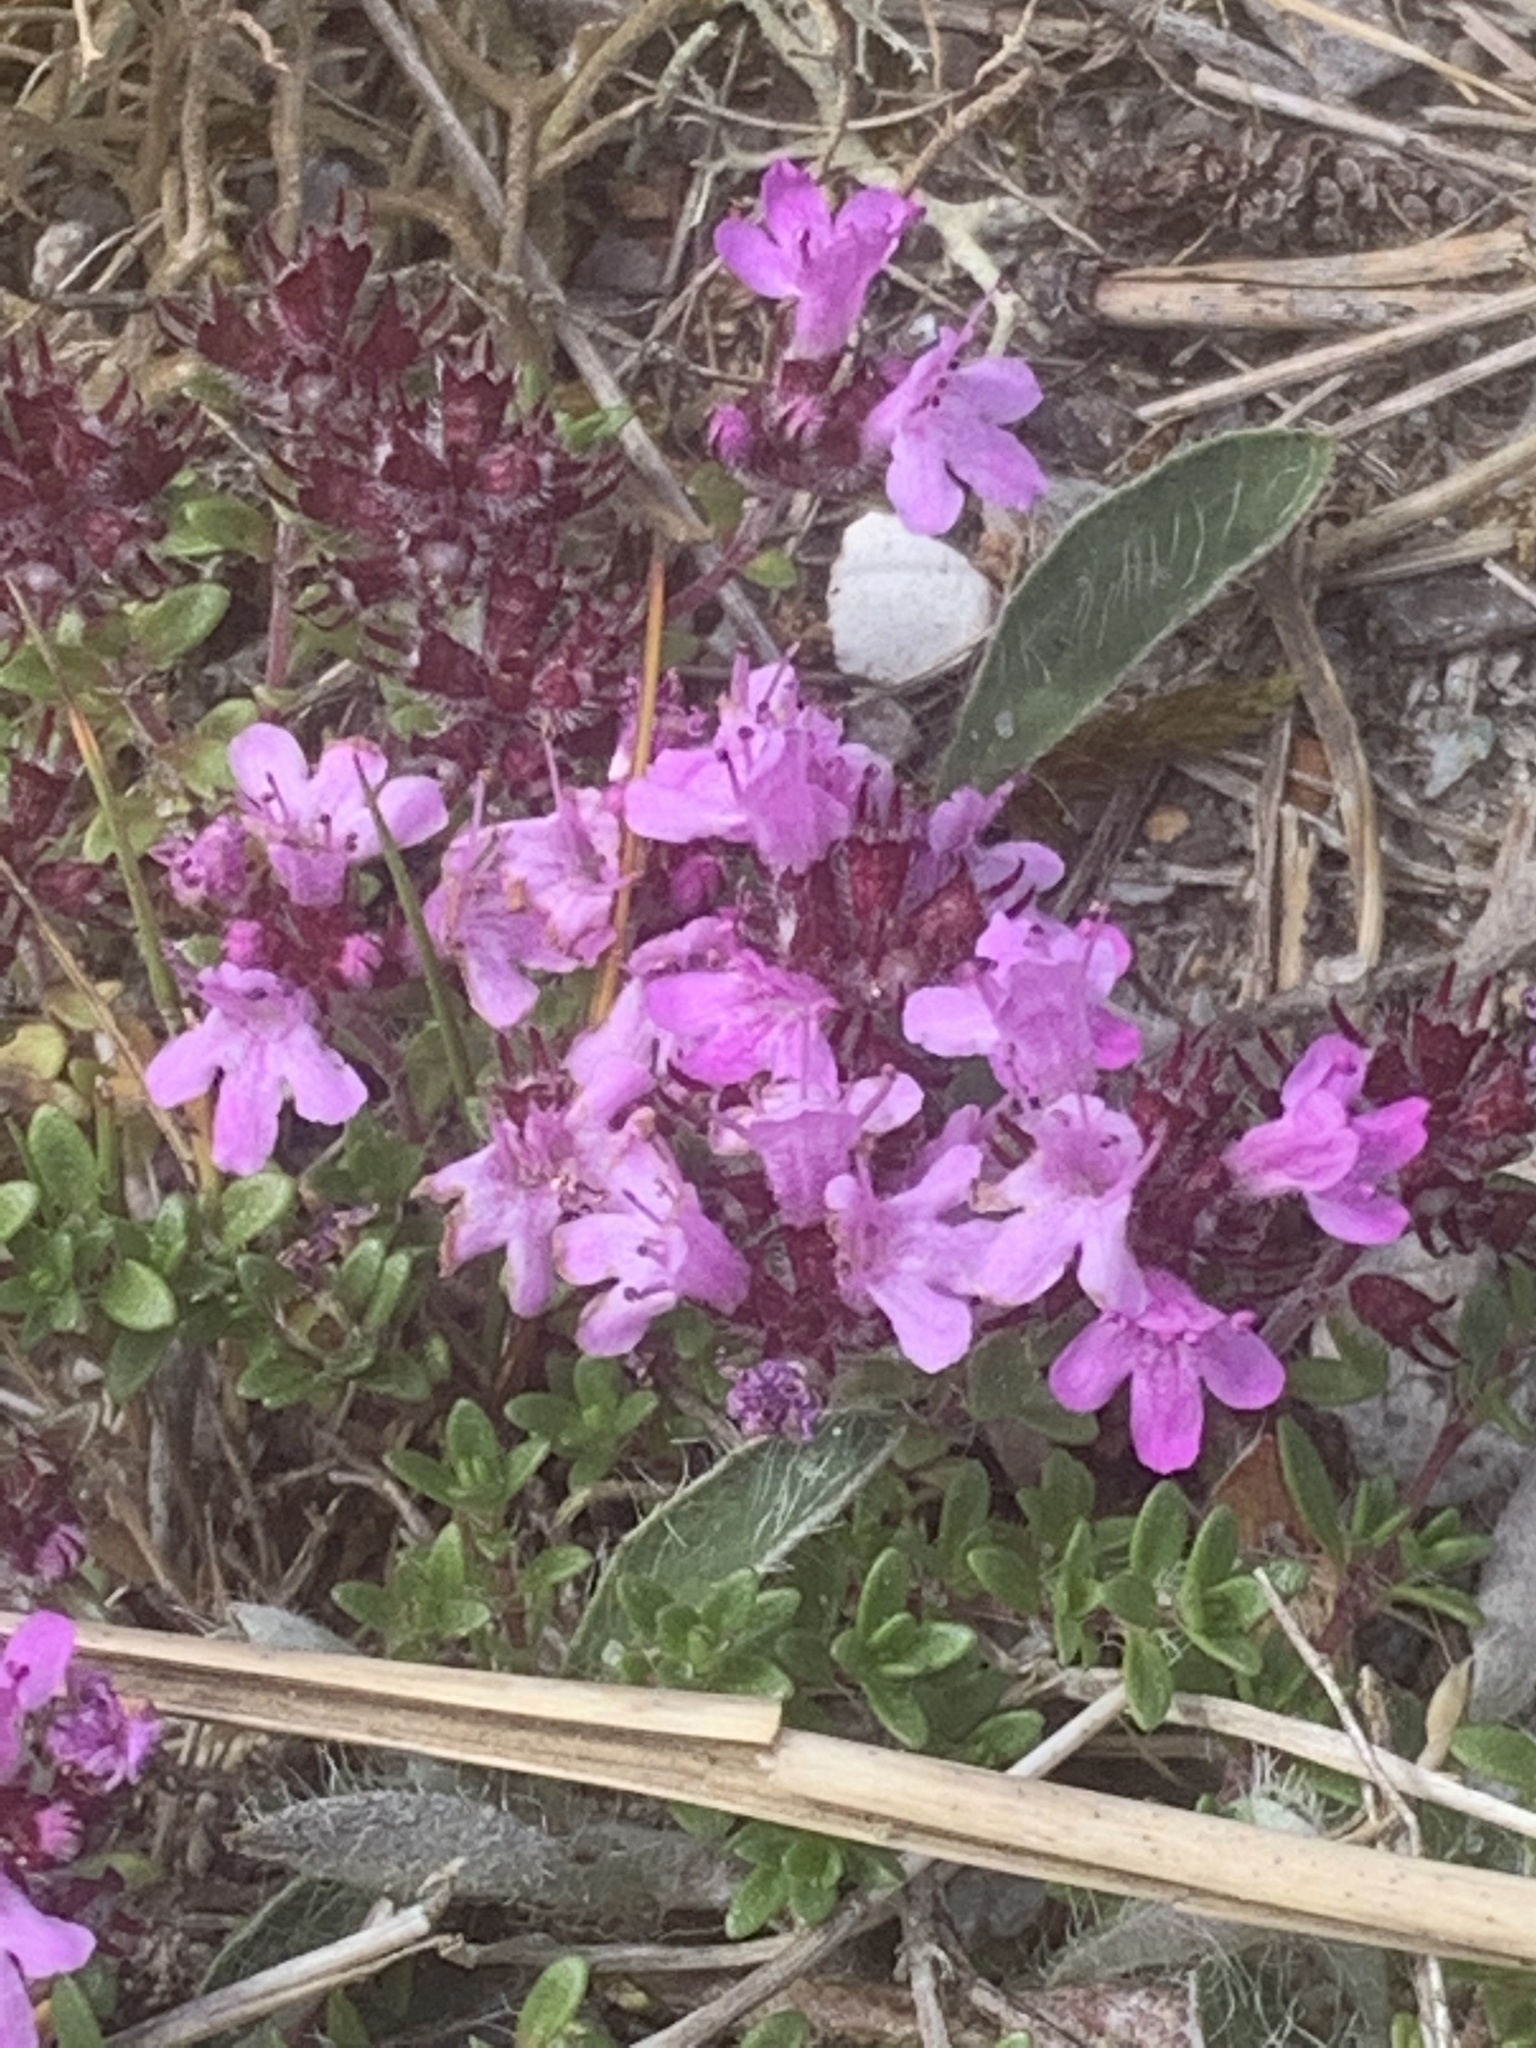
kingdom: Plantae
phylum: Tracheophyta
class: Magnoliopsida
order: Lamiales
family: Lamiaceae
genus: Thymus
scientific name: Thymus praecox
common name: Wild thyme
